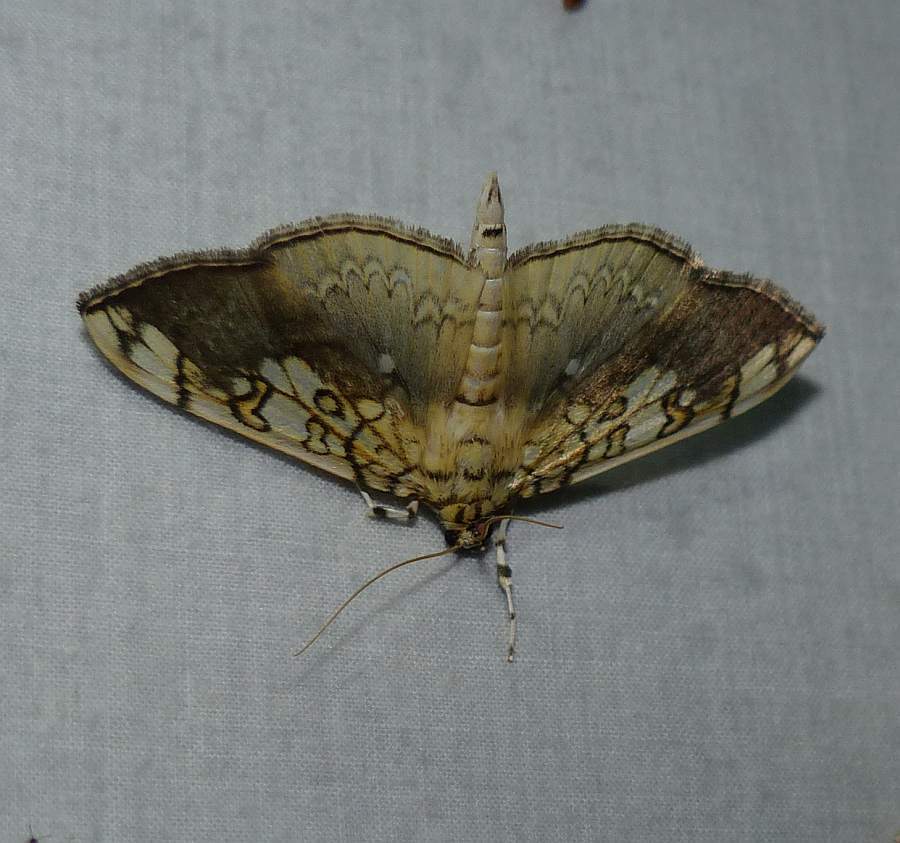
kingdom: Animalia
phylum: Arthropoda
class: Insecta
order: Lepidoptera
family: Crambidae
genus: Pantographa
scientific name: Pantographa limata
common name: Basswood leafroller moth
